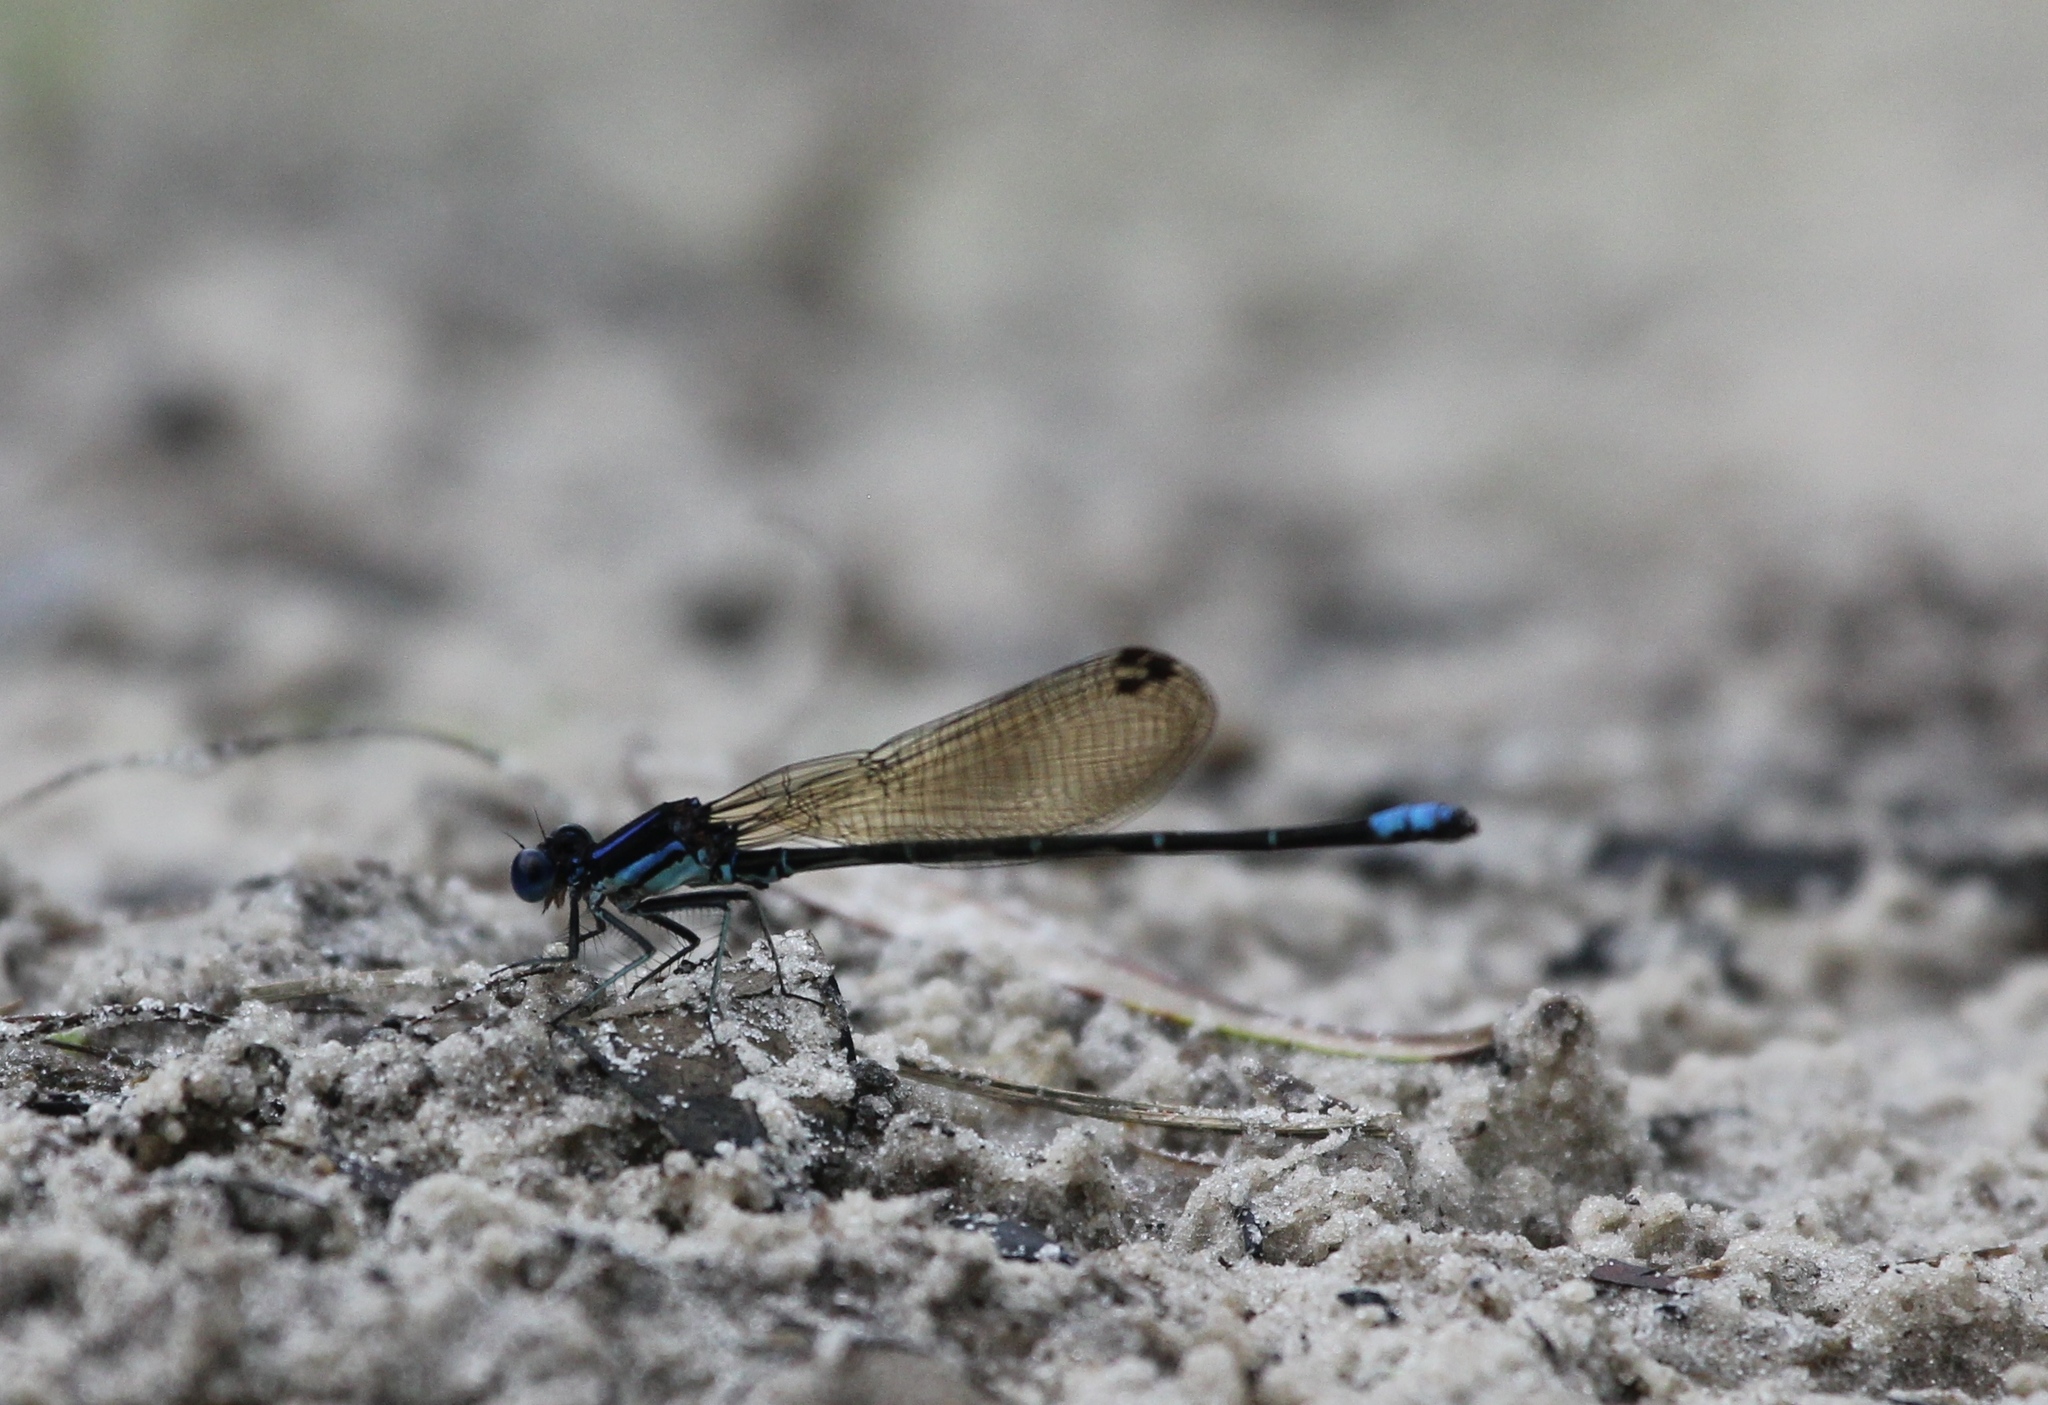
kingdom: Animalia
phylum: Arthropoda
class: Insecta
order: Odonata
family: Coenagrionidae
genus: Argia
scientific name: Argia sedula
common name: Blue-ringed dancer
